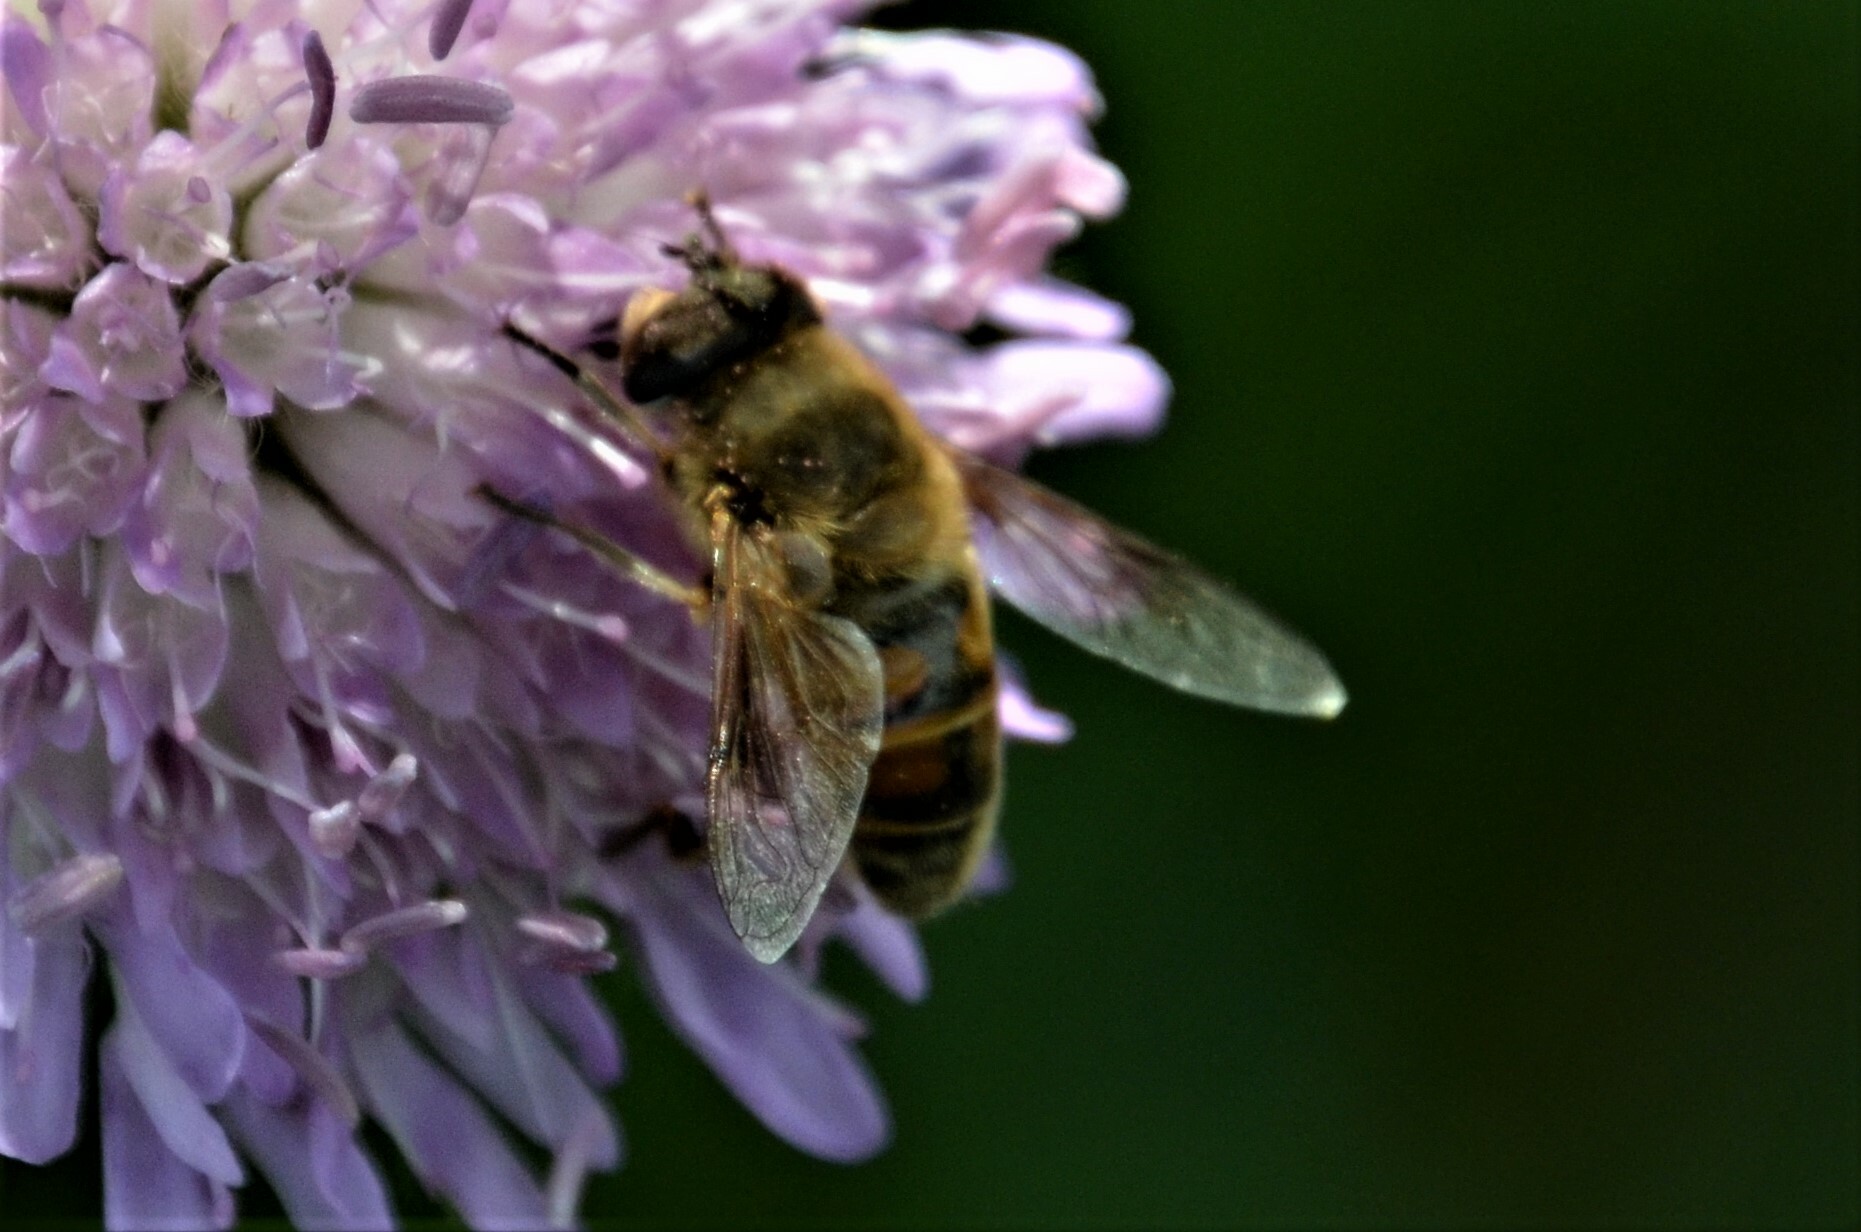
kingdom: Animalia
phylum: Arthropoda
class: Insecta
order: Diptera
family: Syrphidae
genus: Eristalis
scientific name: Eristalis tenax
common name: Drone fly
